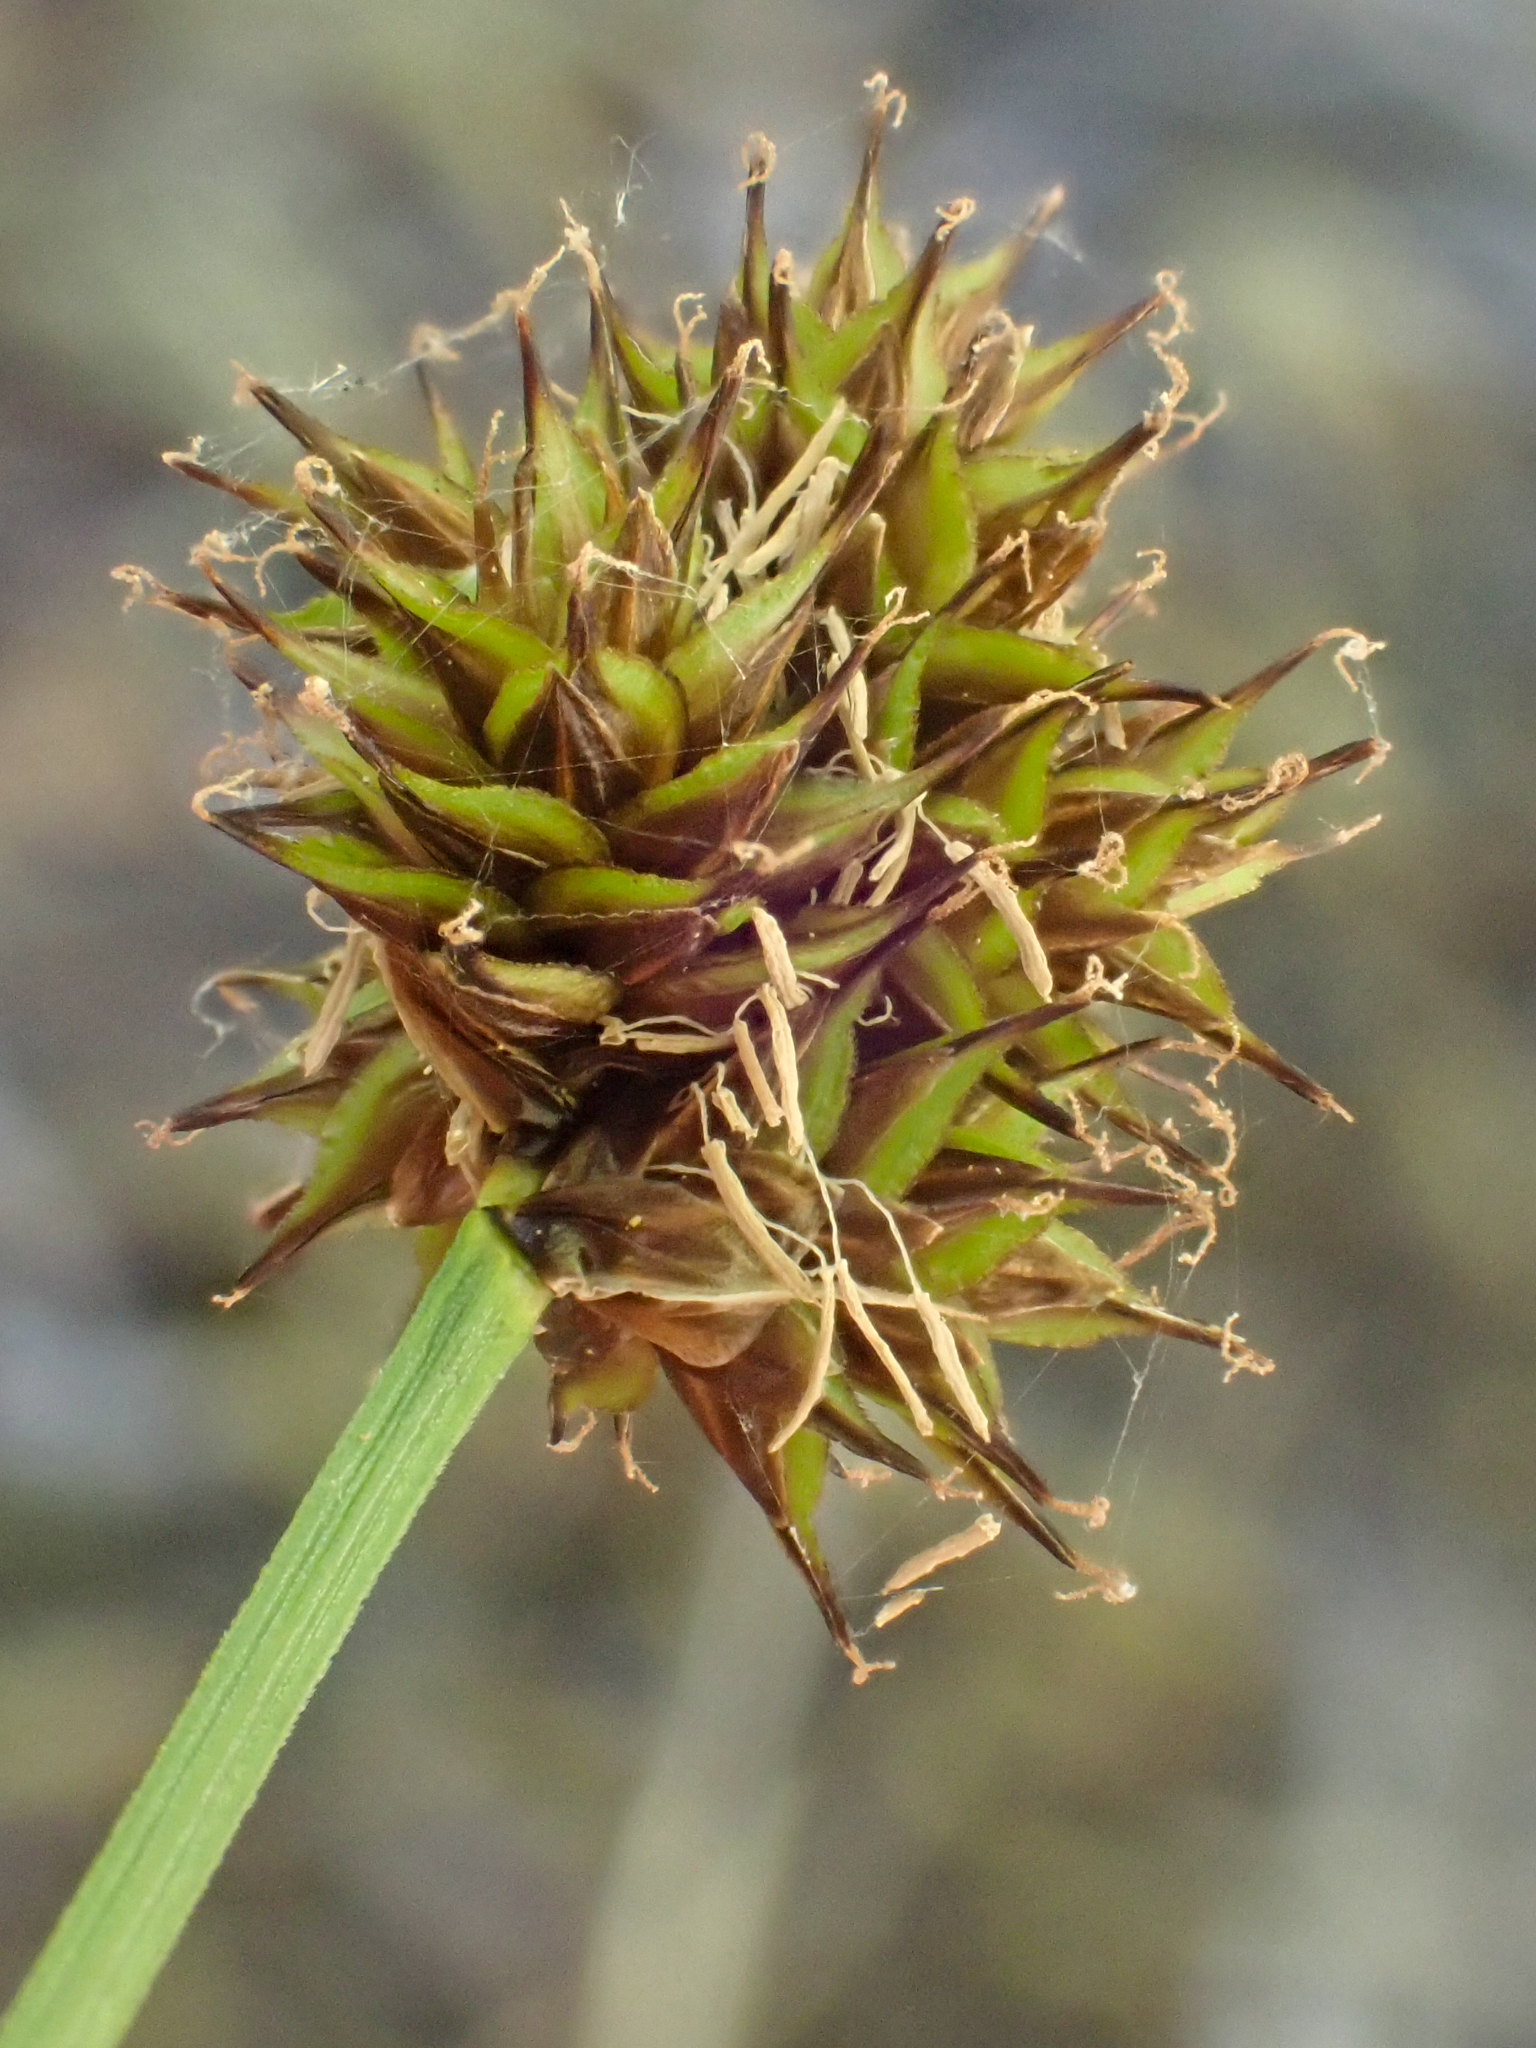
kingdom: Plantae
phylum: Tracheophyta
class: Liliopsida
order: Poales
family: Cyperaceae
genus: Carex
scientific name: Carex microptera
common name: Oval-headed sedge
